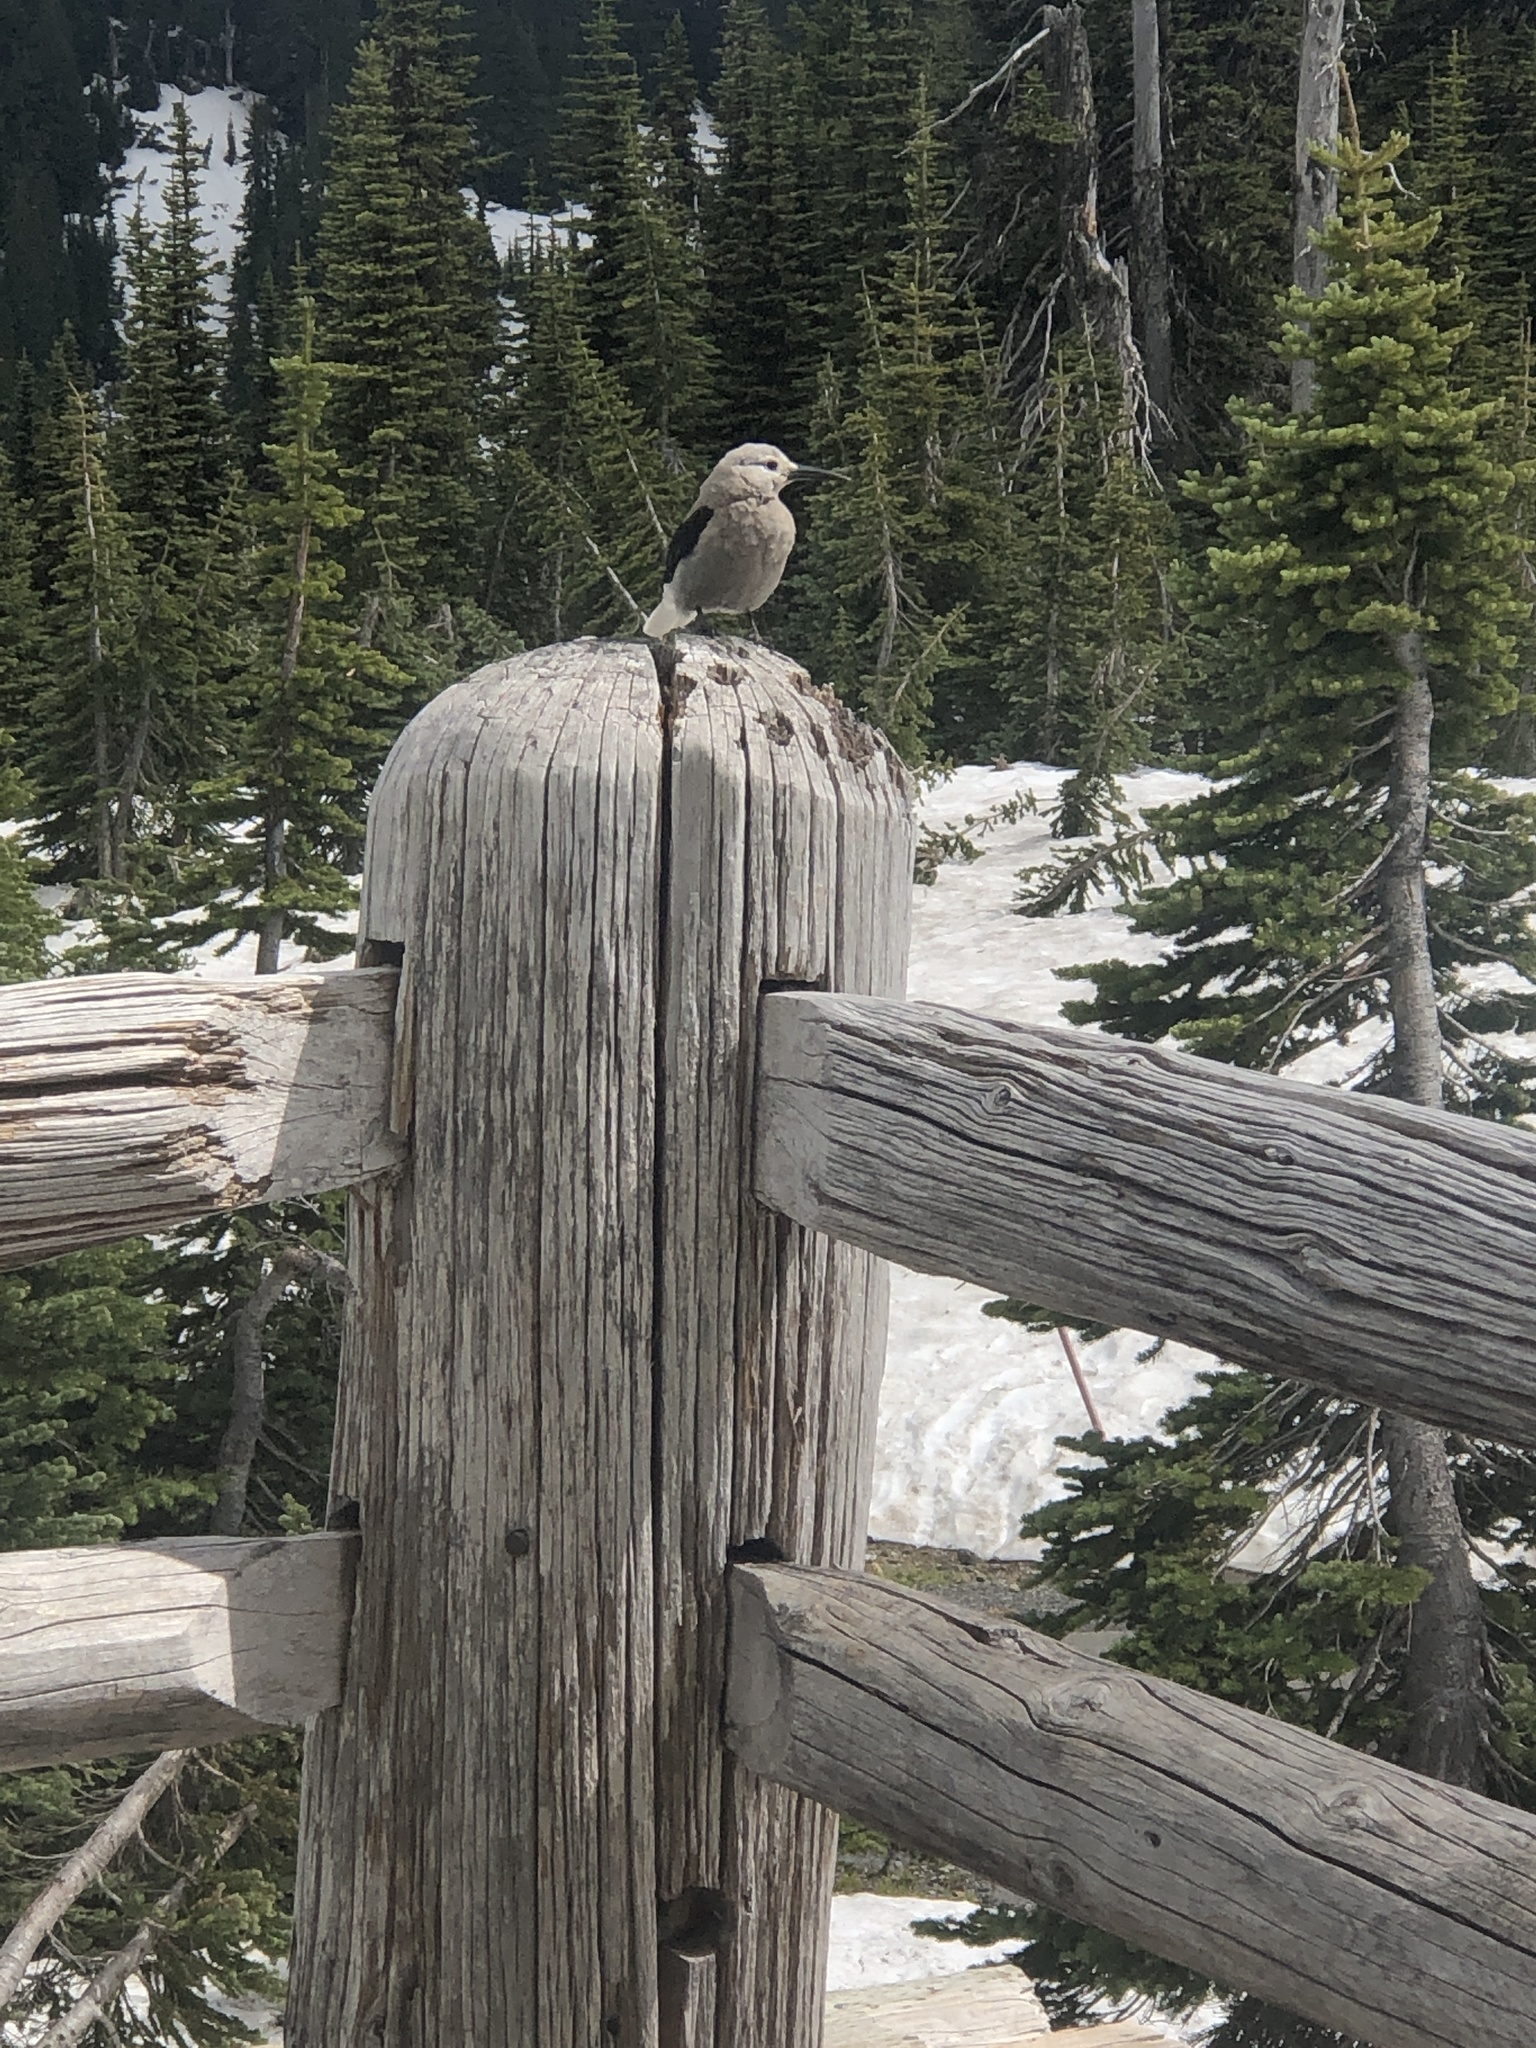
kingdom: Animalia
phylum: Chordata
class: Aves
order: Passeriformes
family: Corvidae
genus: Nucifraga
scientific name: Nucifraga columbiana
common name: Clark's nutcracker
